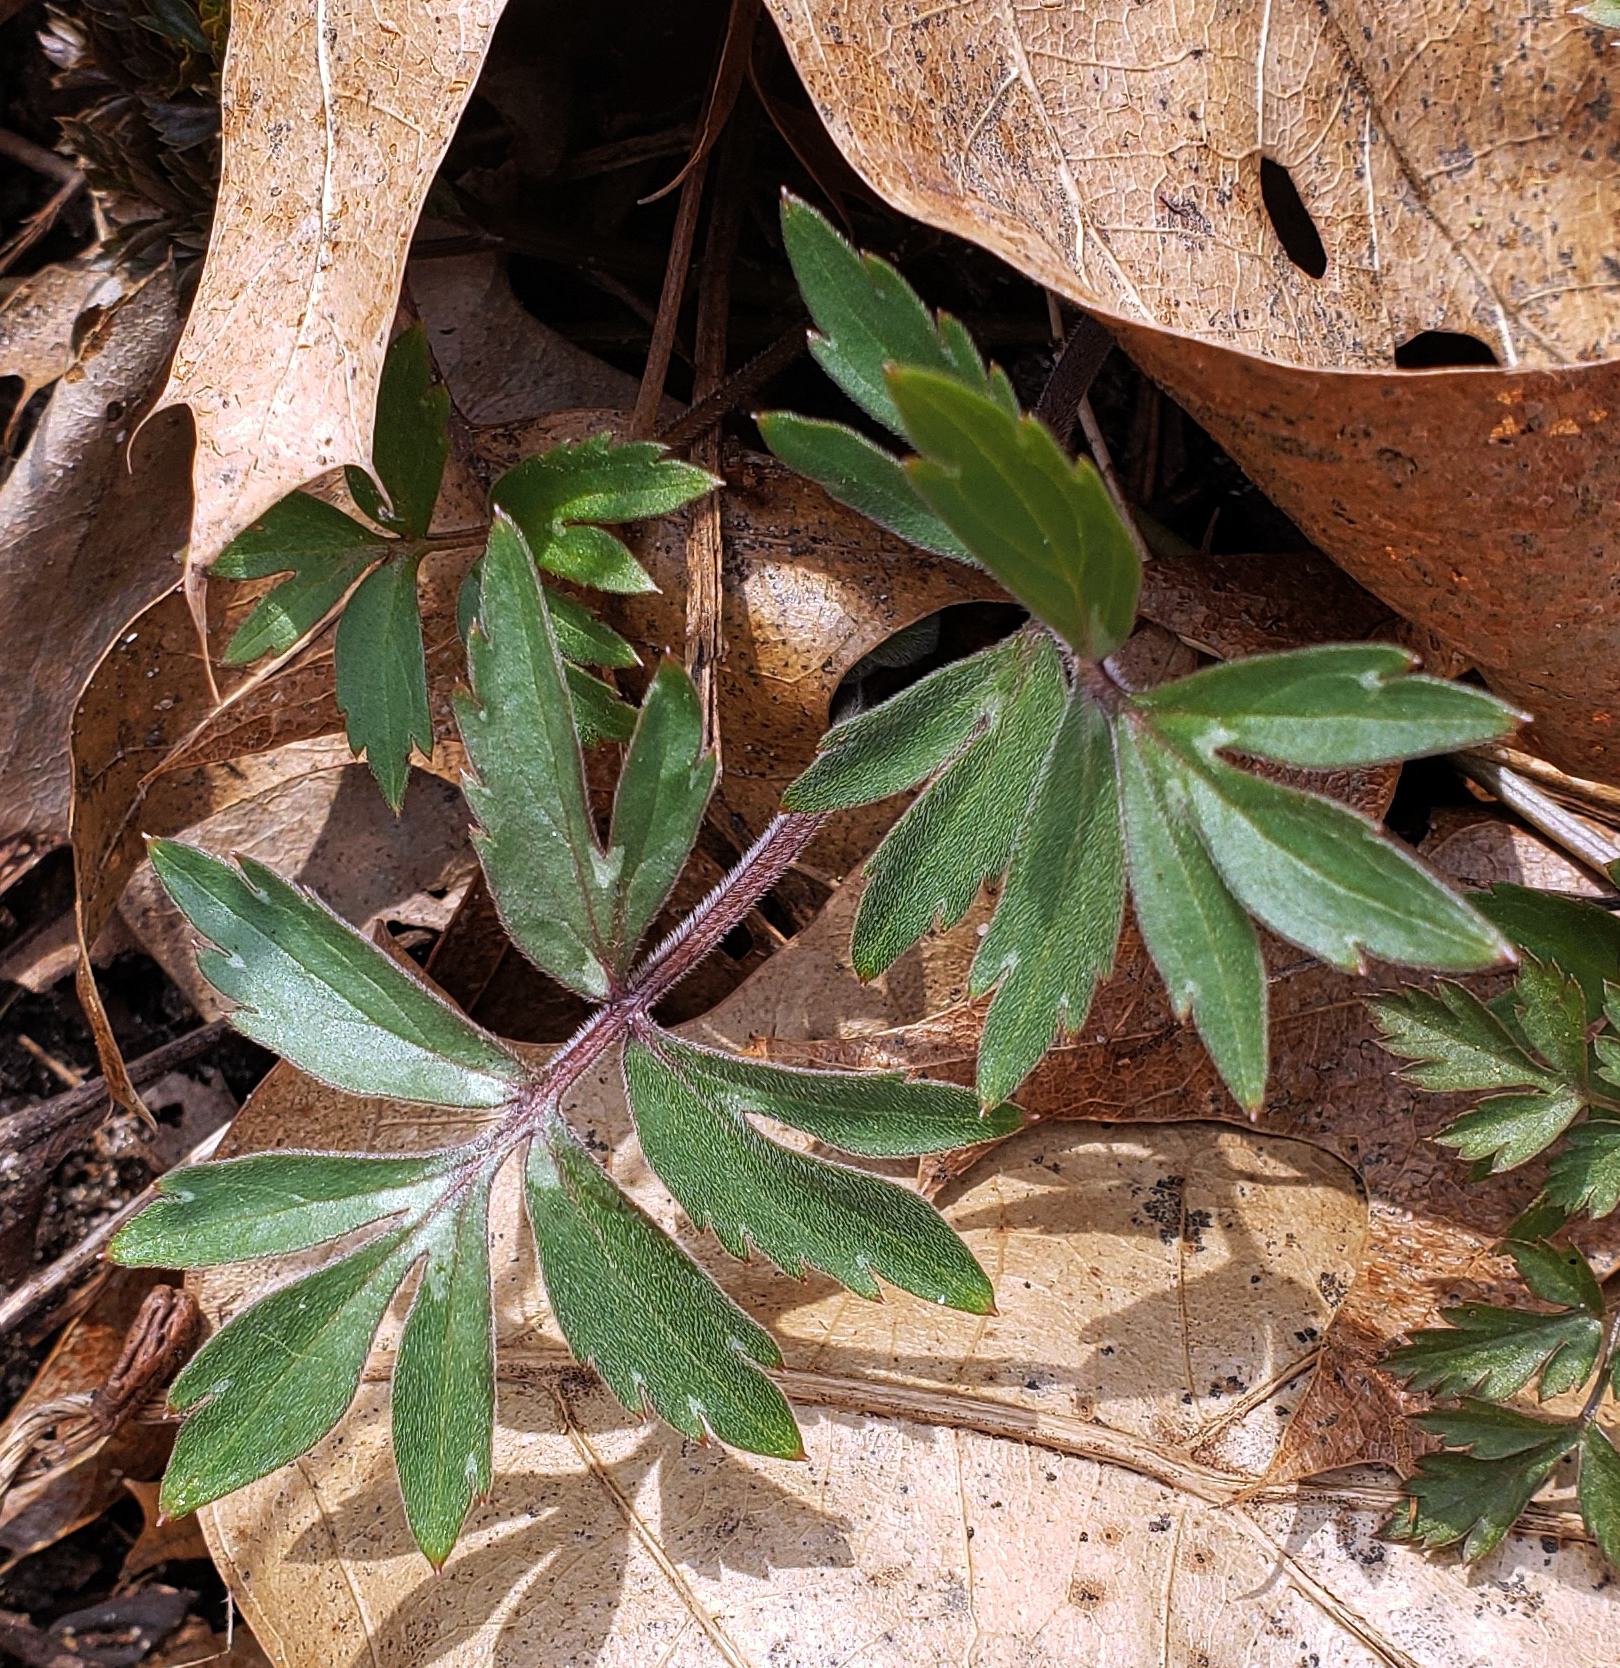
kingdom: Plantae
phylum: Tracheophyta
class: Magnoliopsida
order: Boraginales
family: Hydrophyllaceae
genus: Hydrophyllum
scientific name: Hydrophyllum virginianum
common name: Virginia waterleaf
